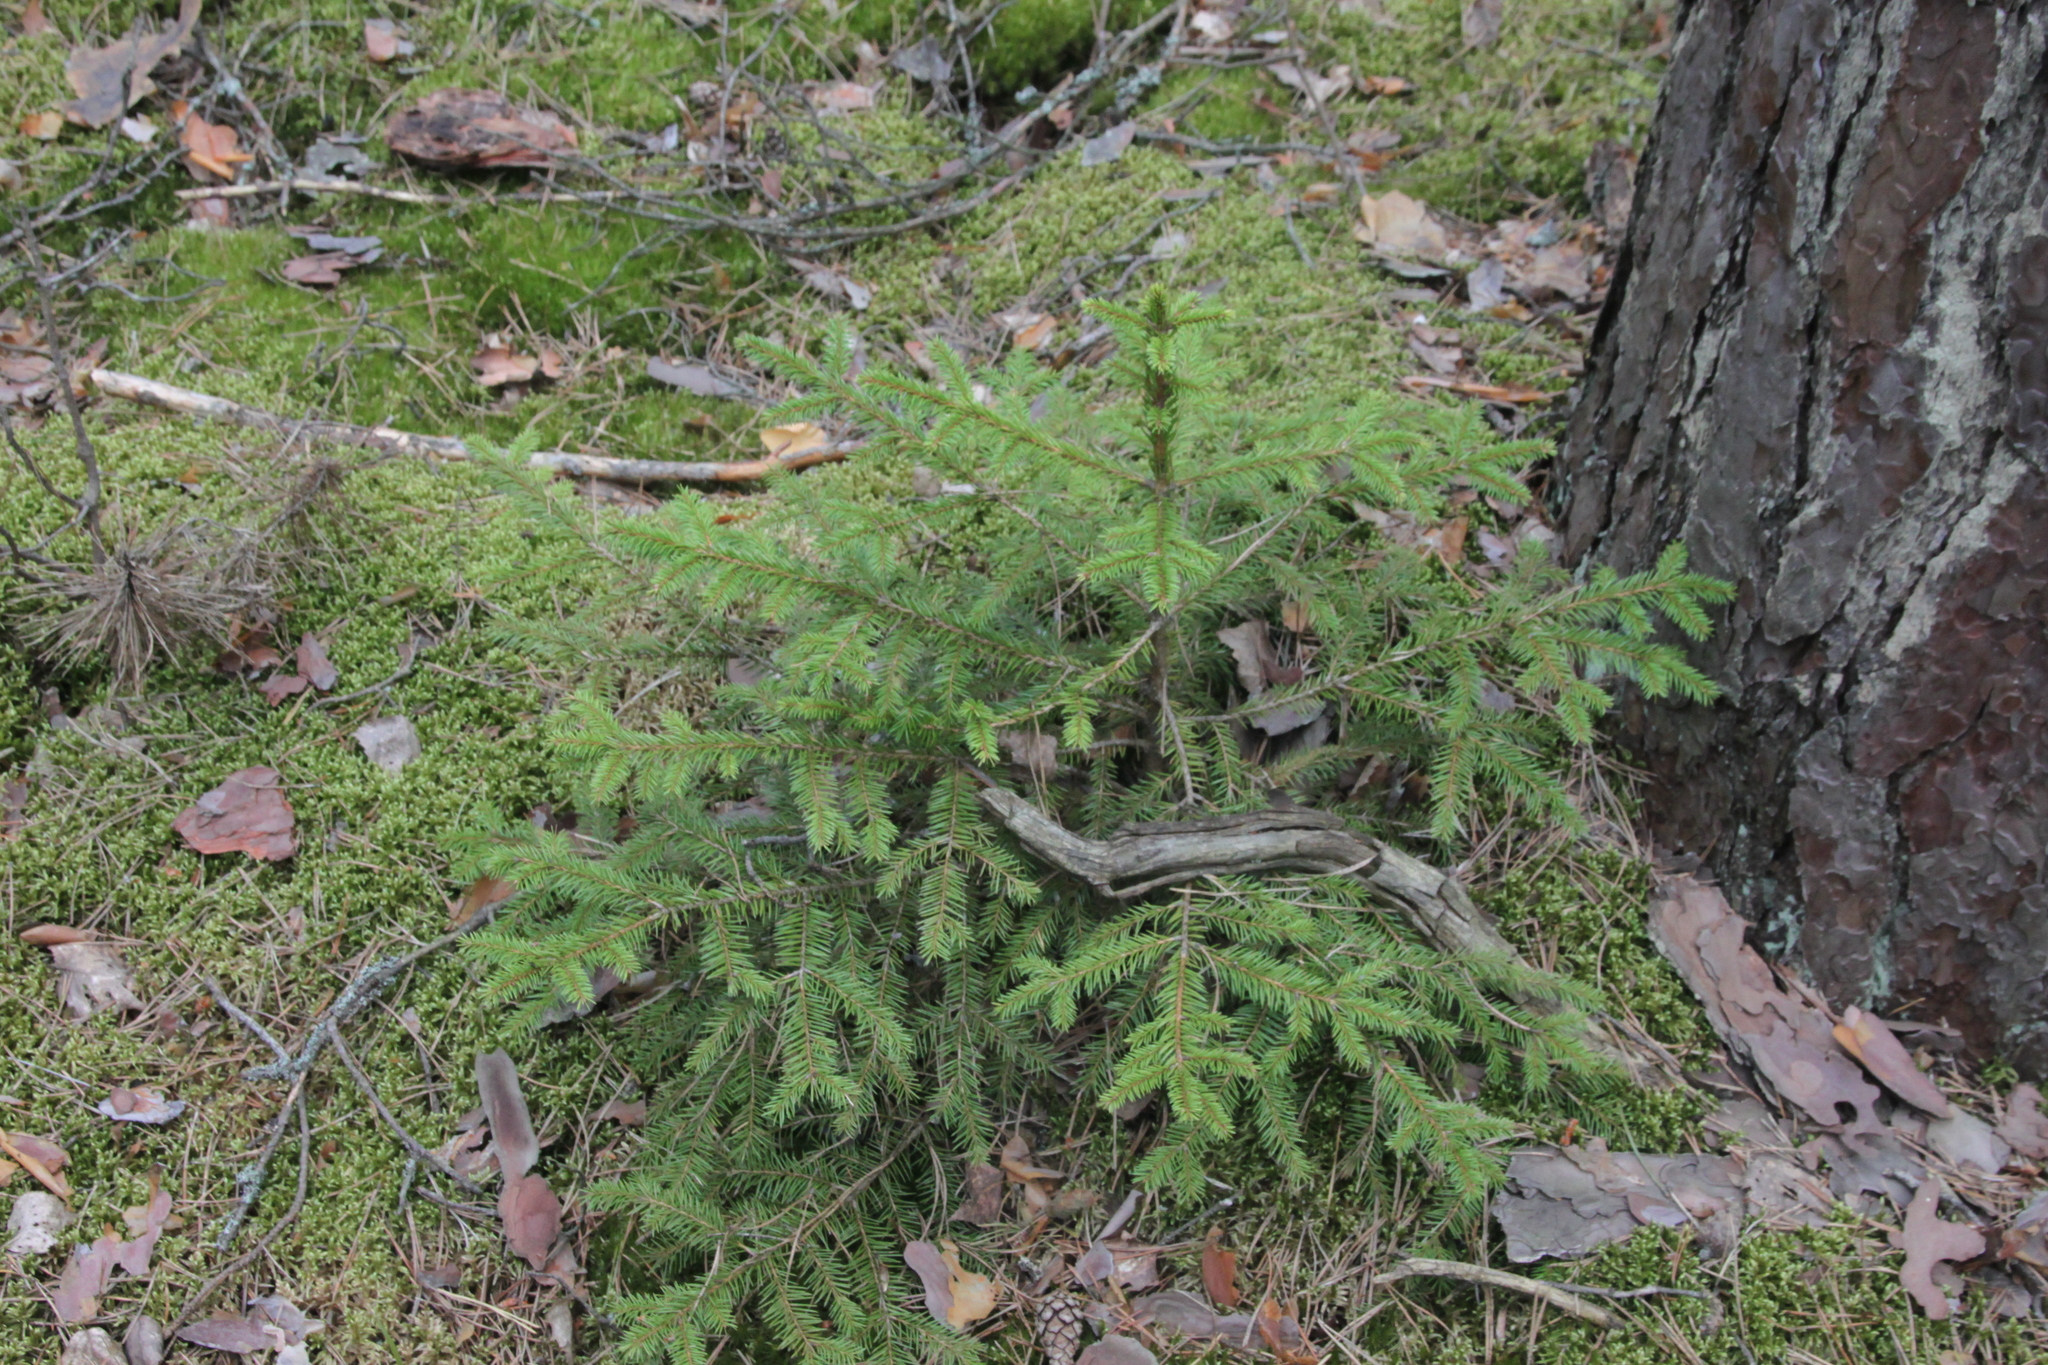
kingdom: Plantae
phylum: Tracheophyta
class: Pinopsida
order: Pinales
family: Pinaceae
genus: Picea
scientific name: Picea abies
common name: Norway spruce
